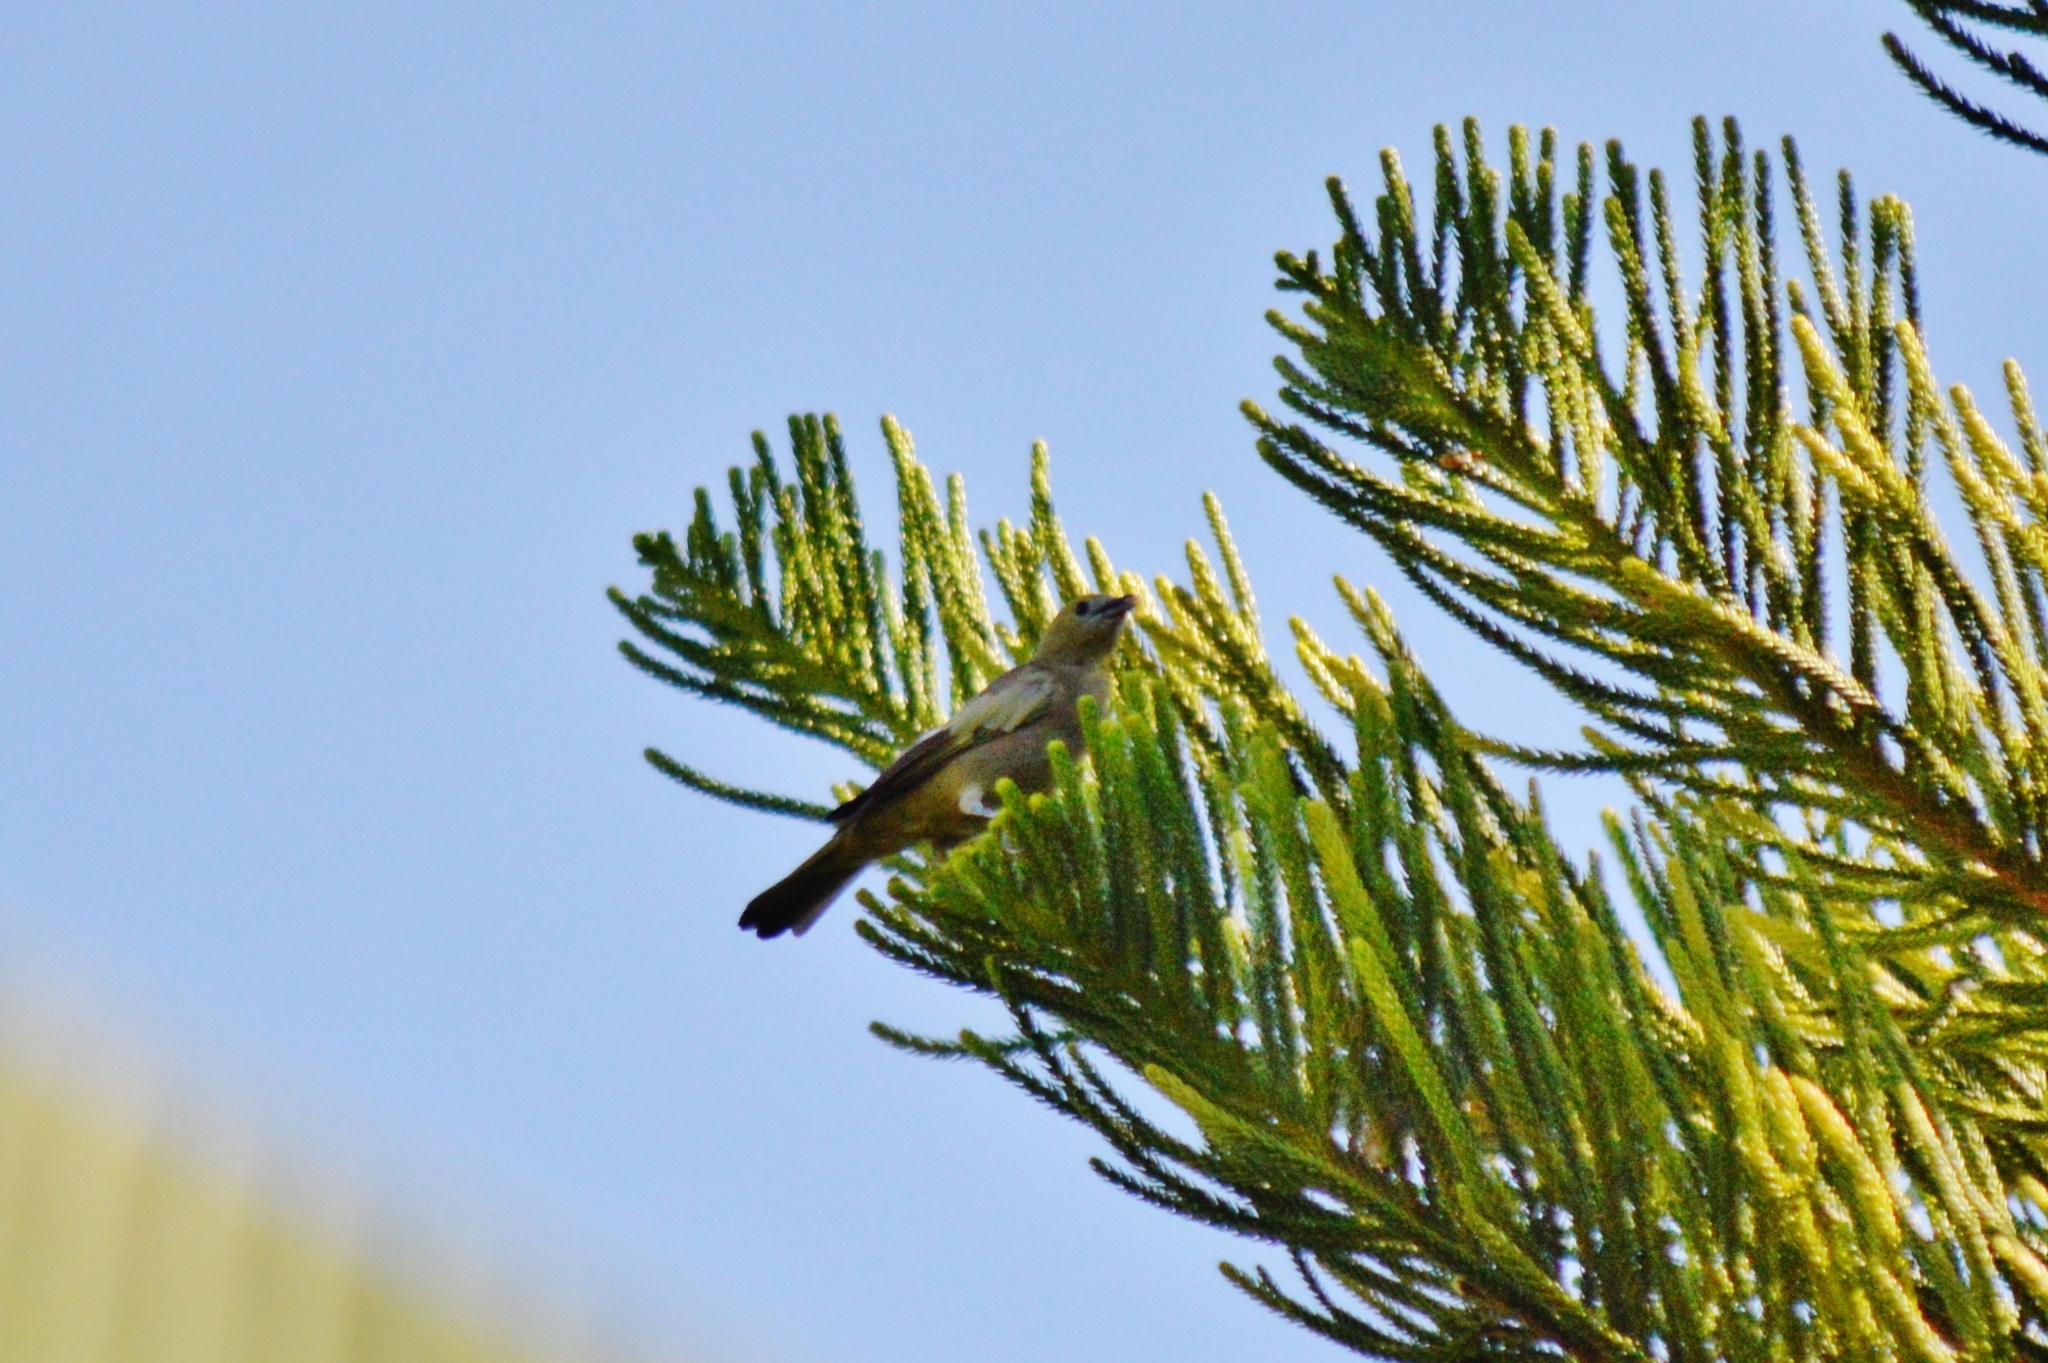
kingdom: Animalia
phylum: Chordata
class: Aves
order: Passeriformes
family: Thraupidae
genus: Thraupis
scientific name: Thraupis palmarum
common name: Palm tanager
